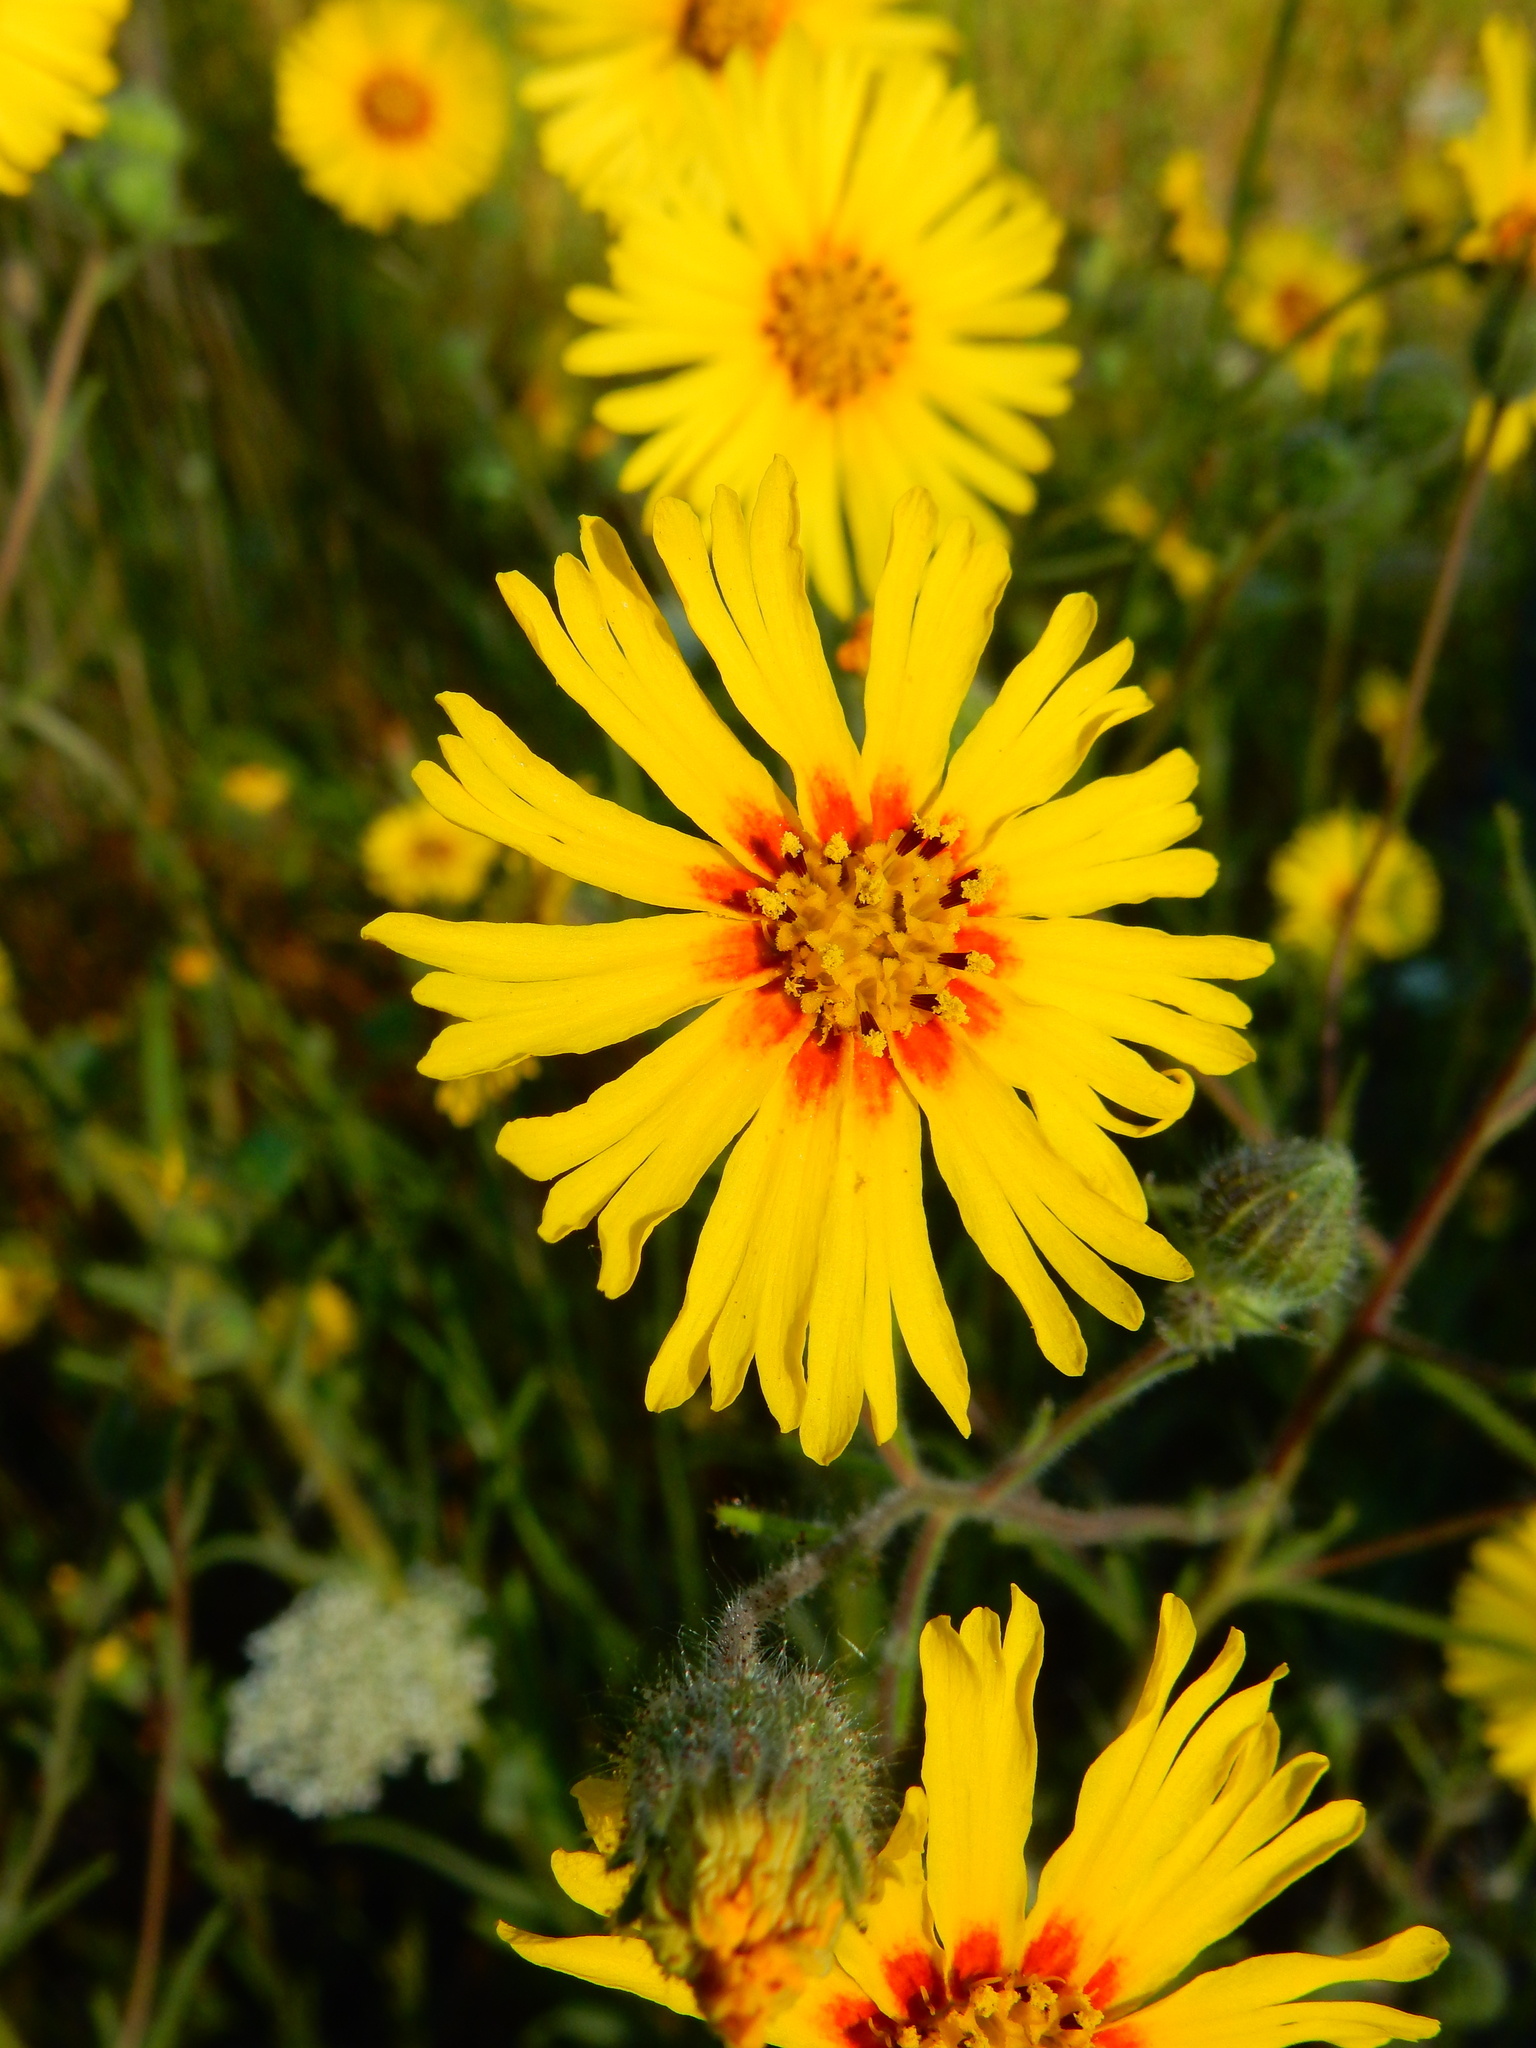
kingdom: Plantae
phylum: Tracheophyta
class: Magnoliopsida
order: Asterales
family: Asteraceae
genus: Madia
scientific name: Madia elegans
